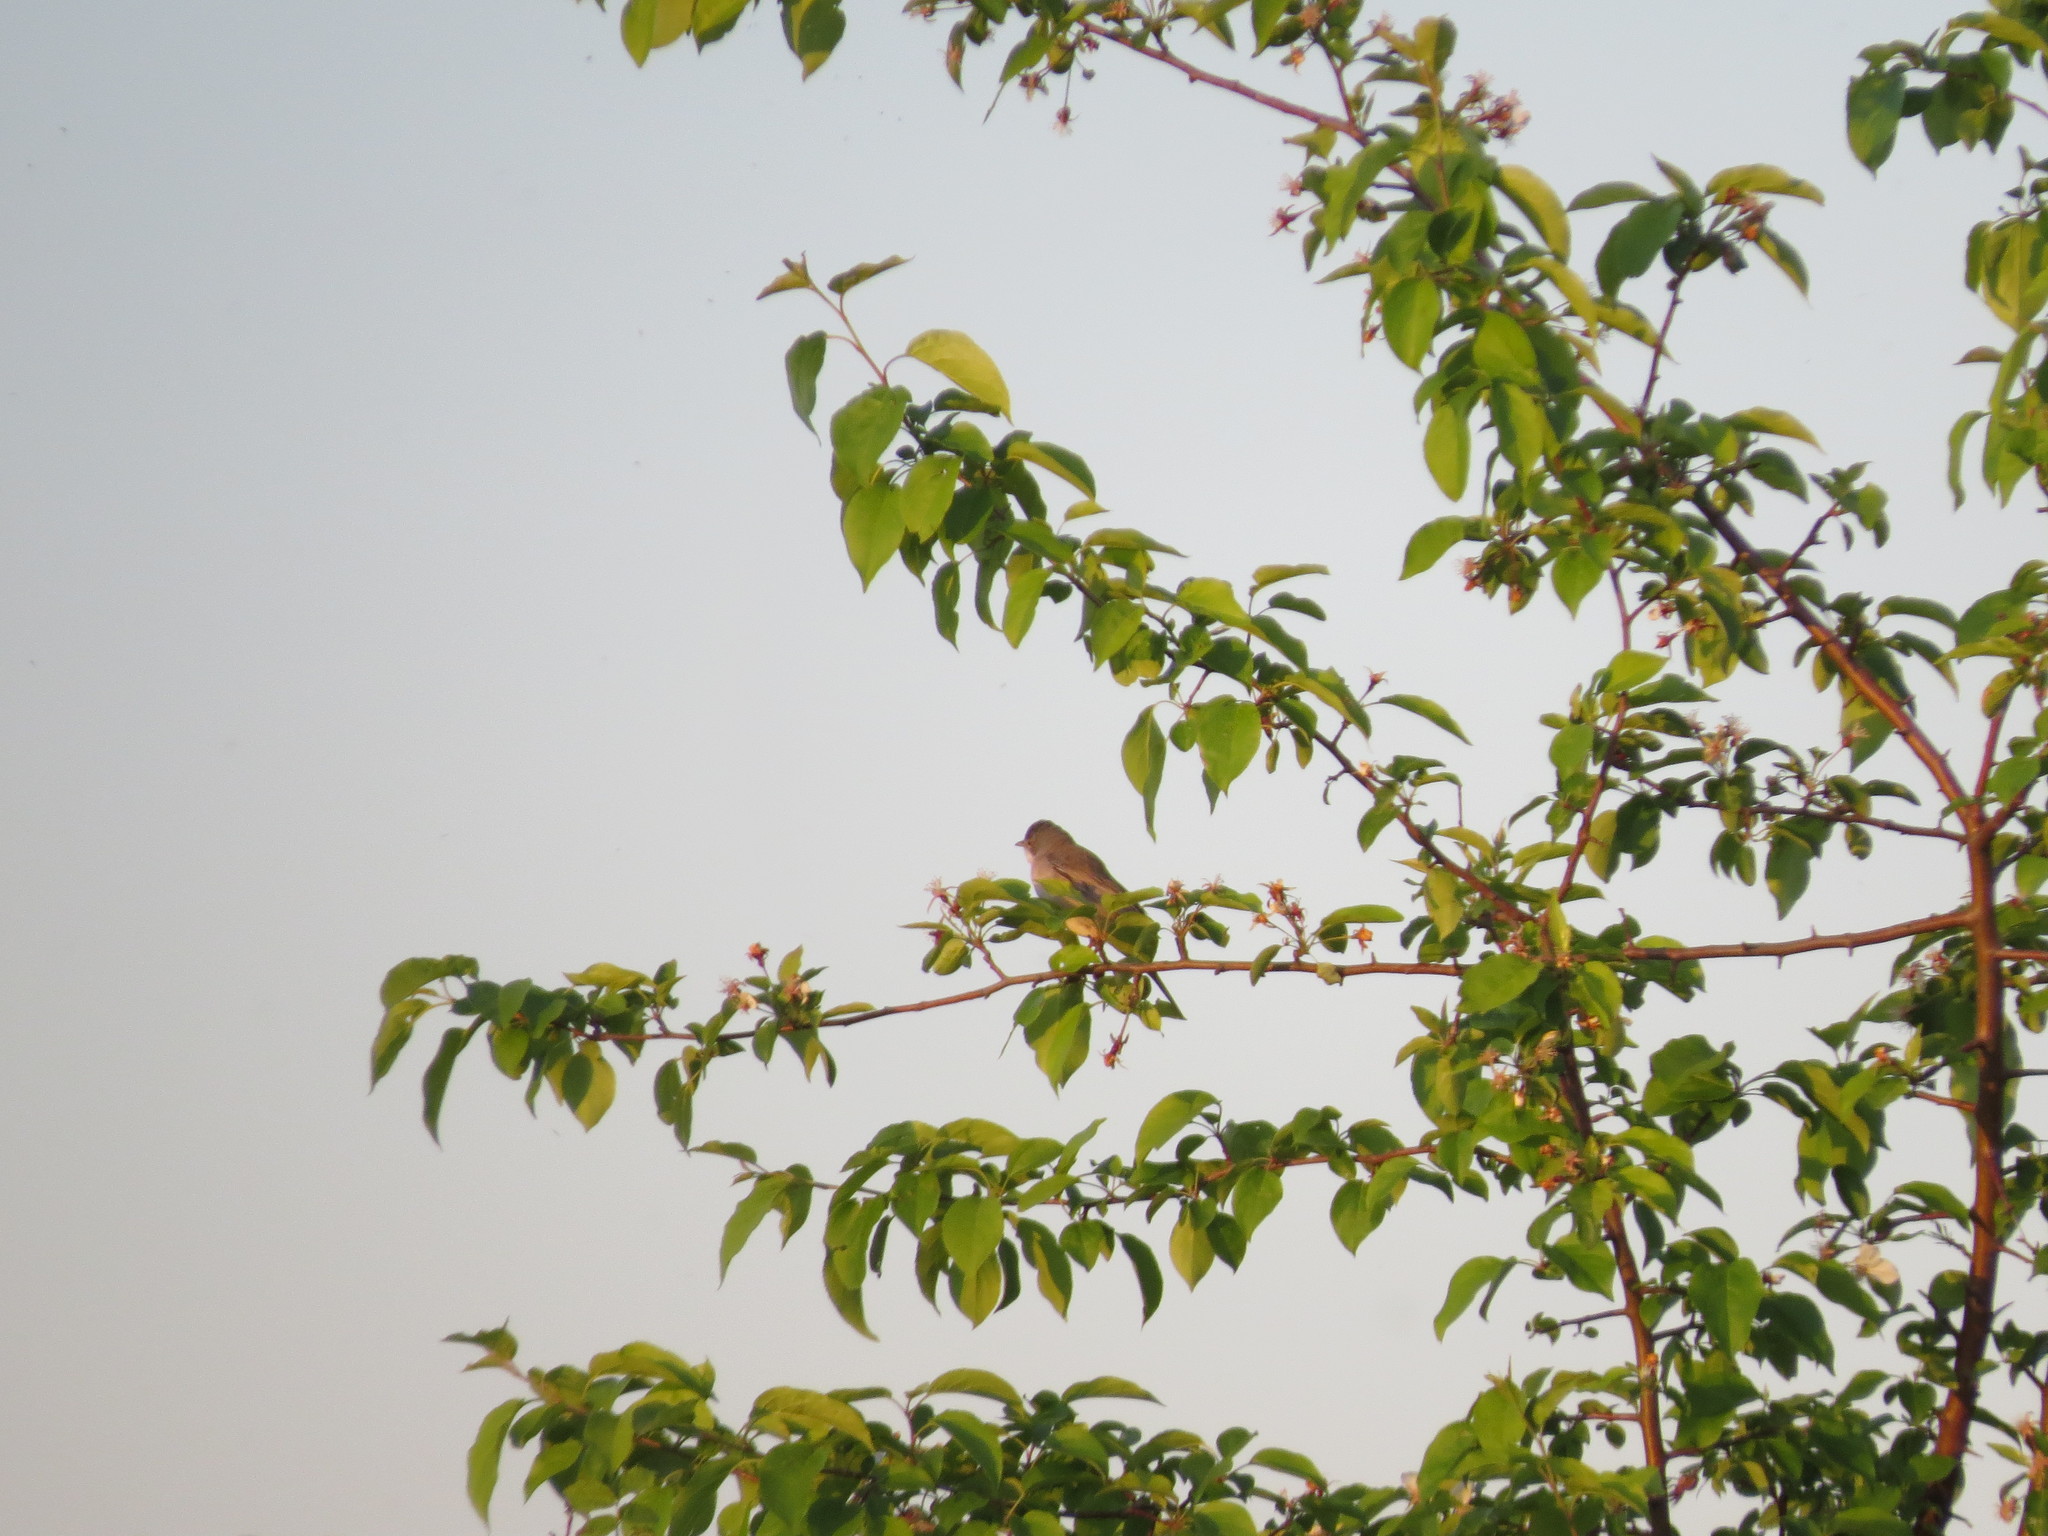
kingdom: Animalia
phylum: Chordata
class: Aves
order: Passeriformes
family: Sylviidae
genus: Sylvia
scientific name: Sylvia communis
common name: Common whitethroat
